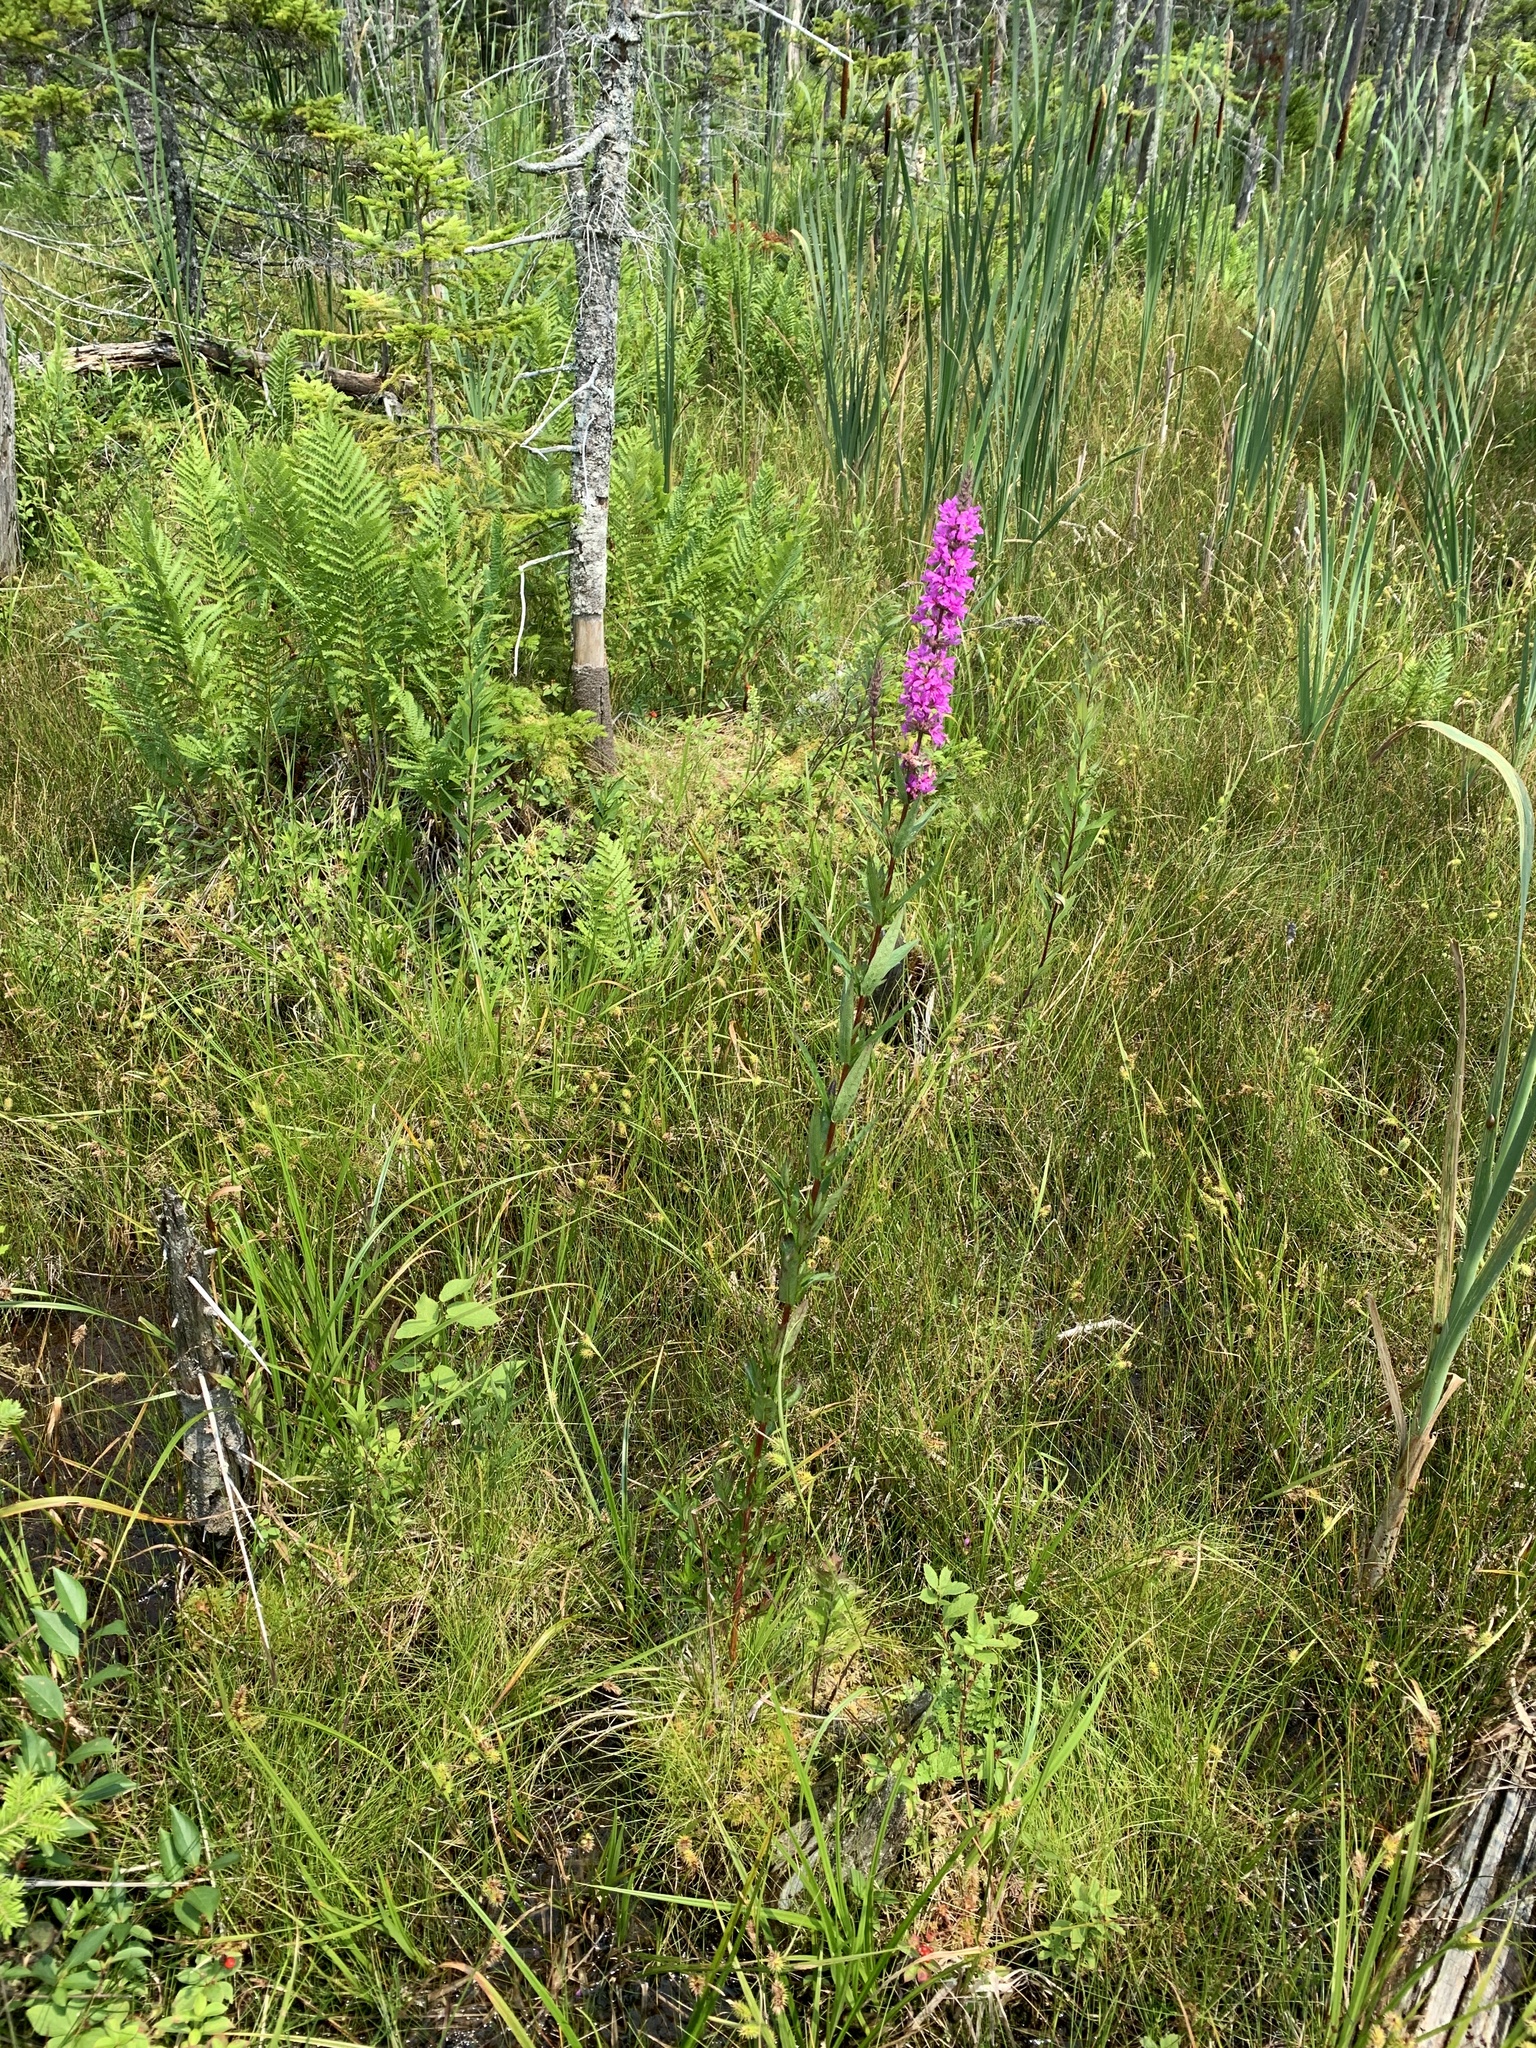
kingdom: Plantae
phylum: Tracheophyta
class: Magnoliopsida
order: Myrtales
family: Lythraceae
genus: Lythrum
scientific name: Lythrum salicaria
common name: Purple loosestrife
